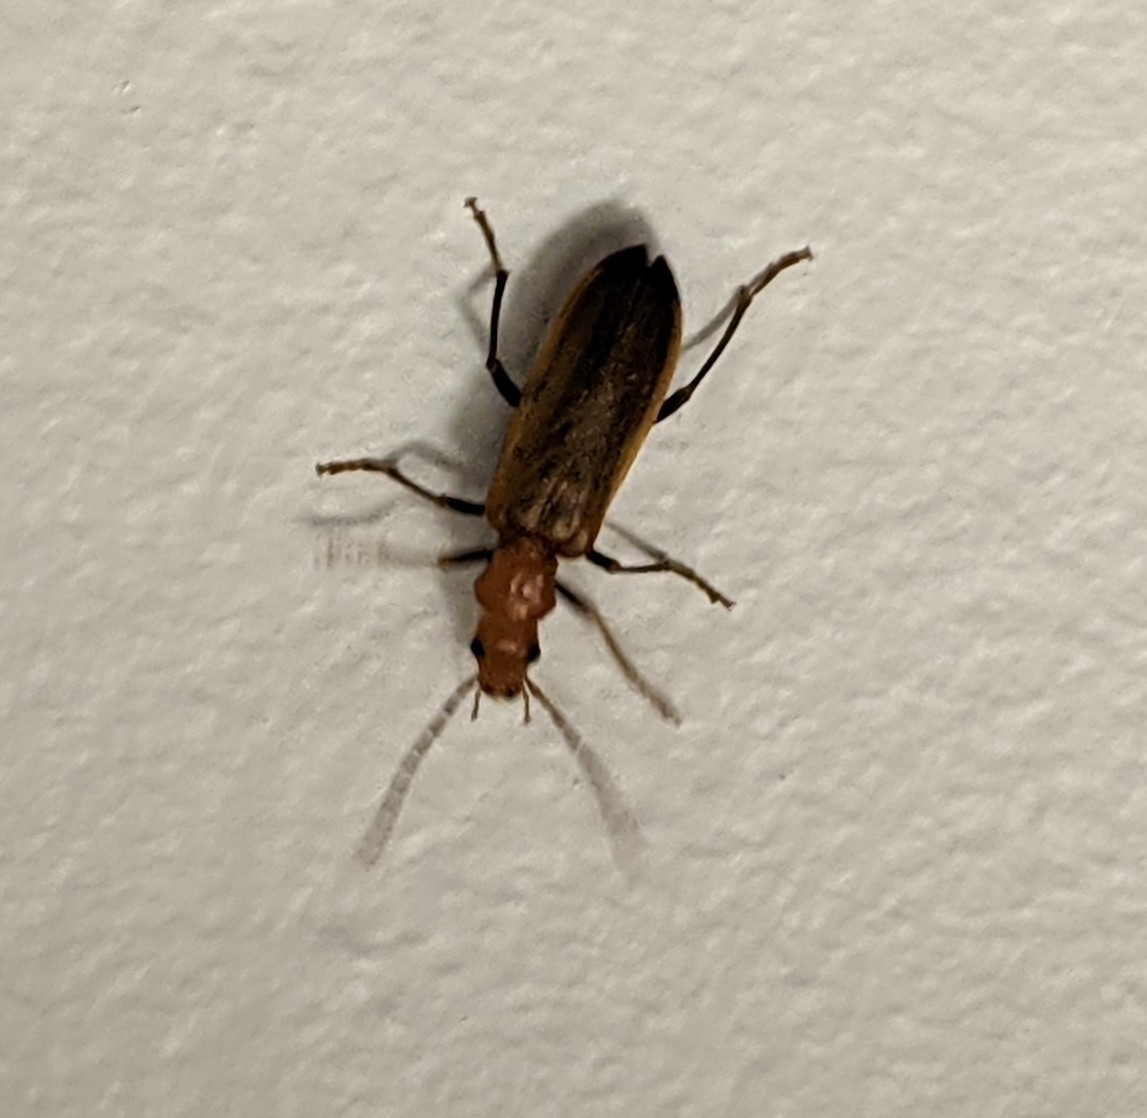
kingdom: Animalia
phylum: Arthropoda
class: Insecta
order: Coleoptera
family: Oedemeridae
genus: Nacerdes
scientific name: Nacerdes melanura
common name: Wharf borer
